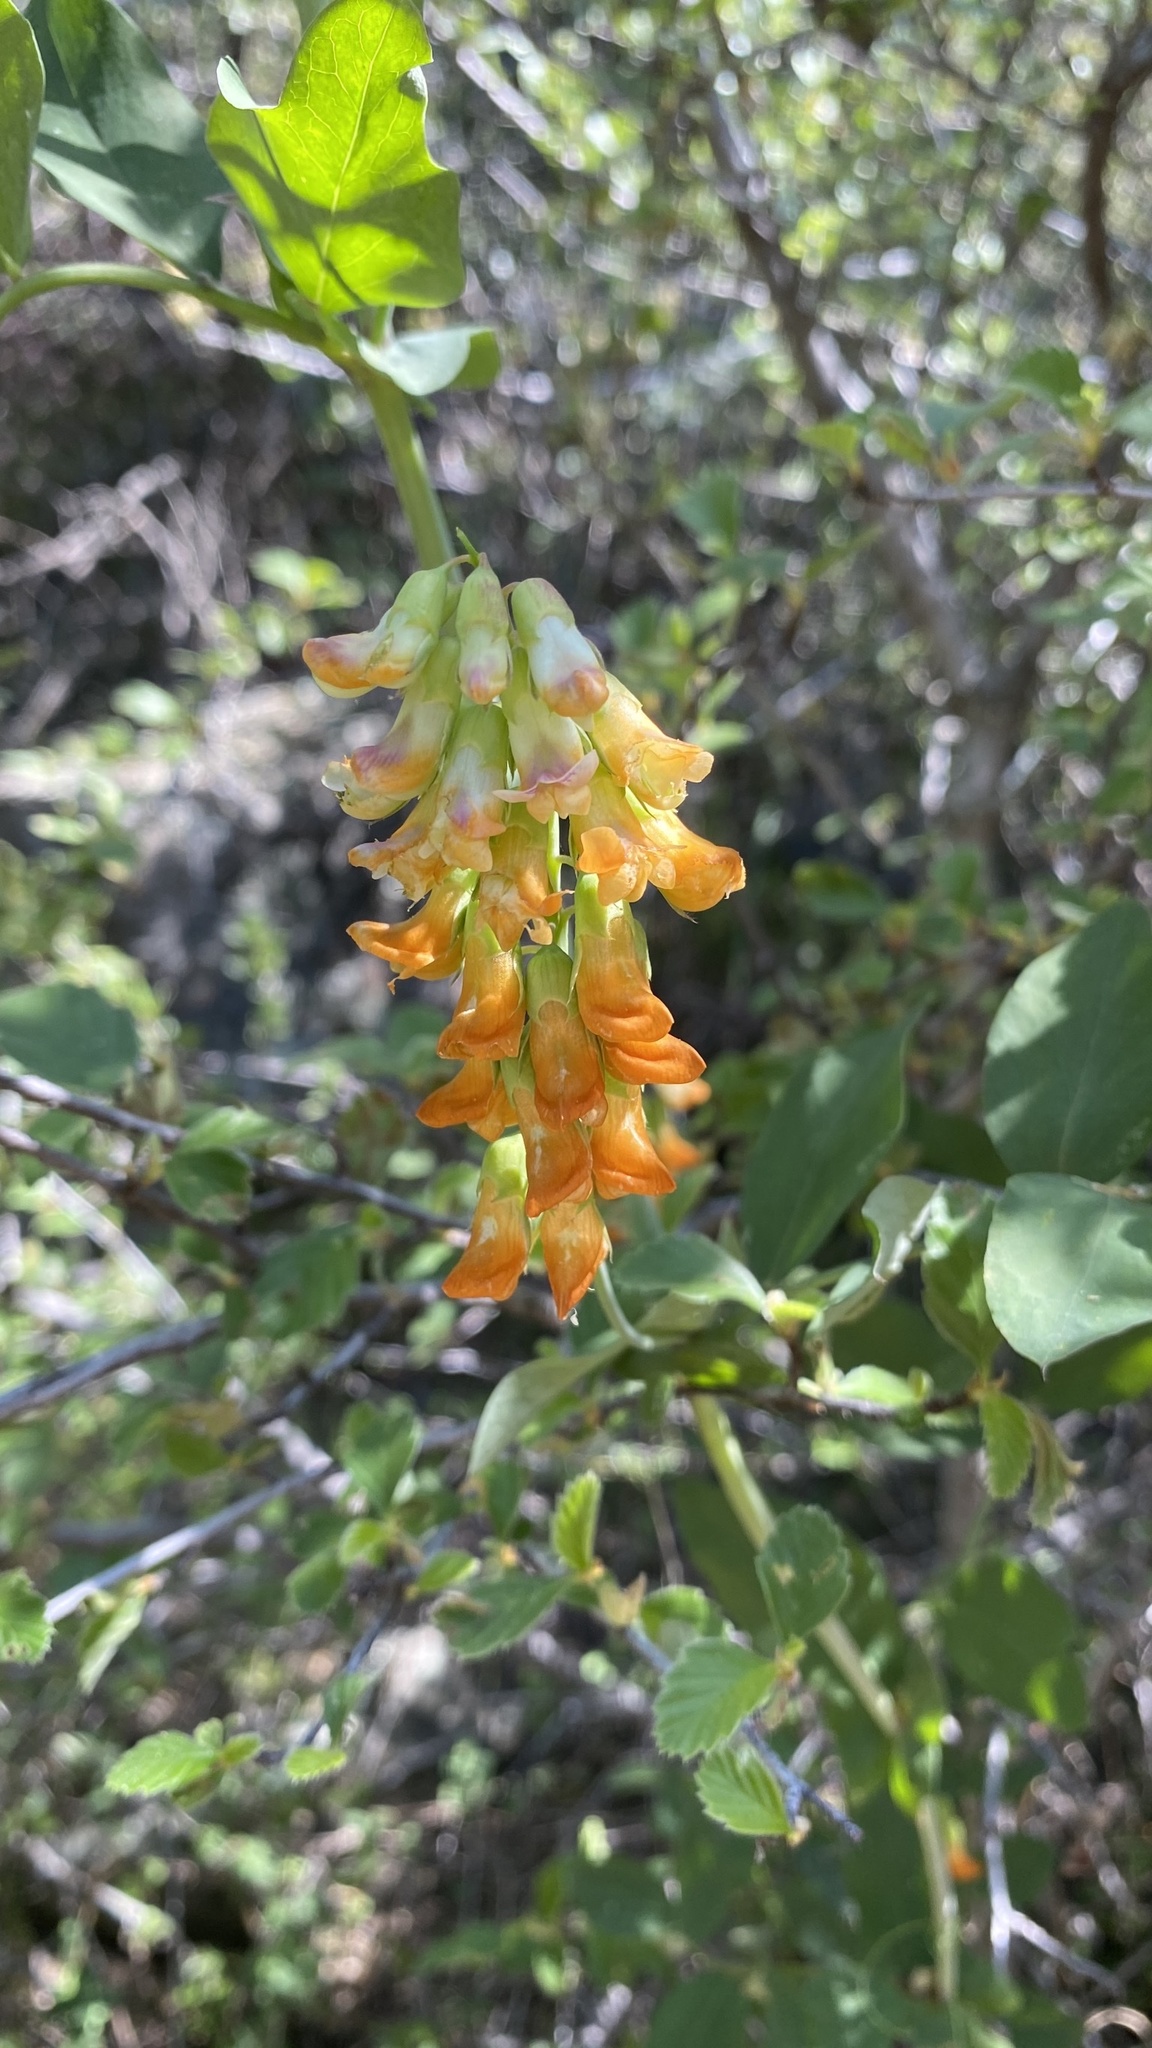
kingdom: Plantae
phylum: Tracheophyta
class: Magnoliopsida
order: Fabales
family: Fabaceae
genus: Lathyrus
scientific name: Lathyrus sulphureus
